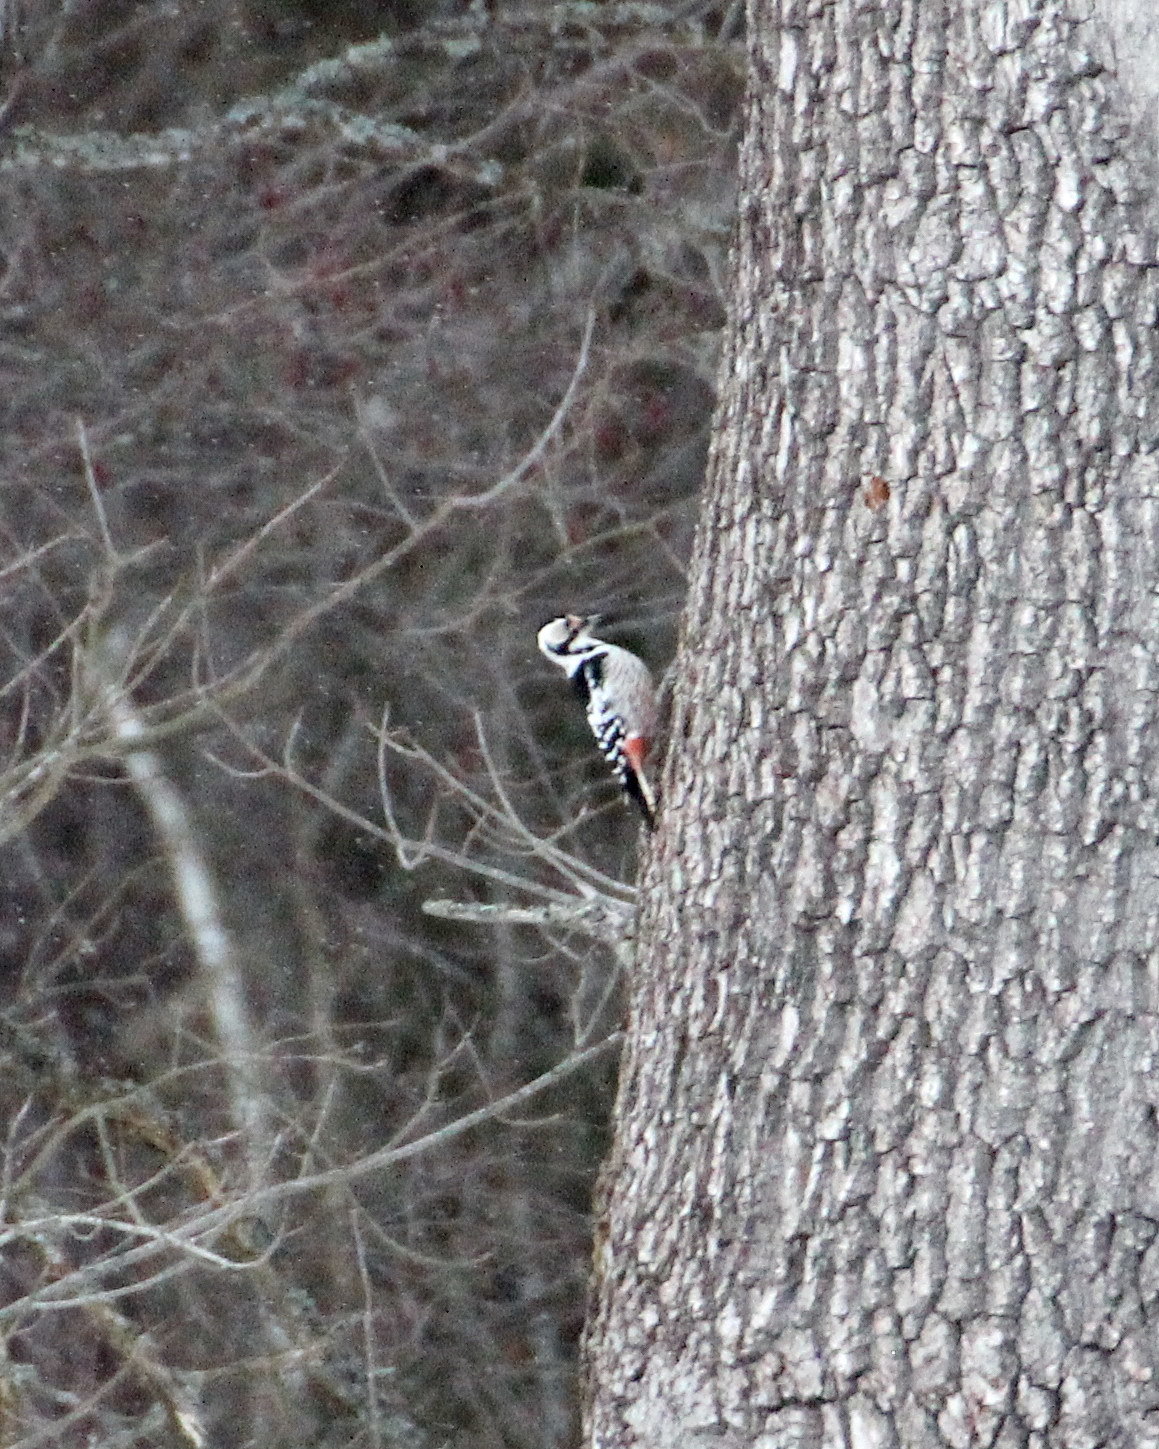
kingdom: Animalia
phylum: Chordata
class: Aves
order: Piciformes
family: Picidae
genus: Dendrocopos
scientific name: Dendrocopos leucotos
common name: White-backed woodpecker
